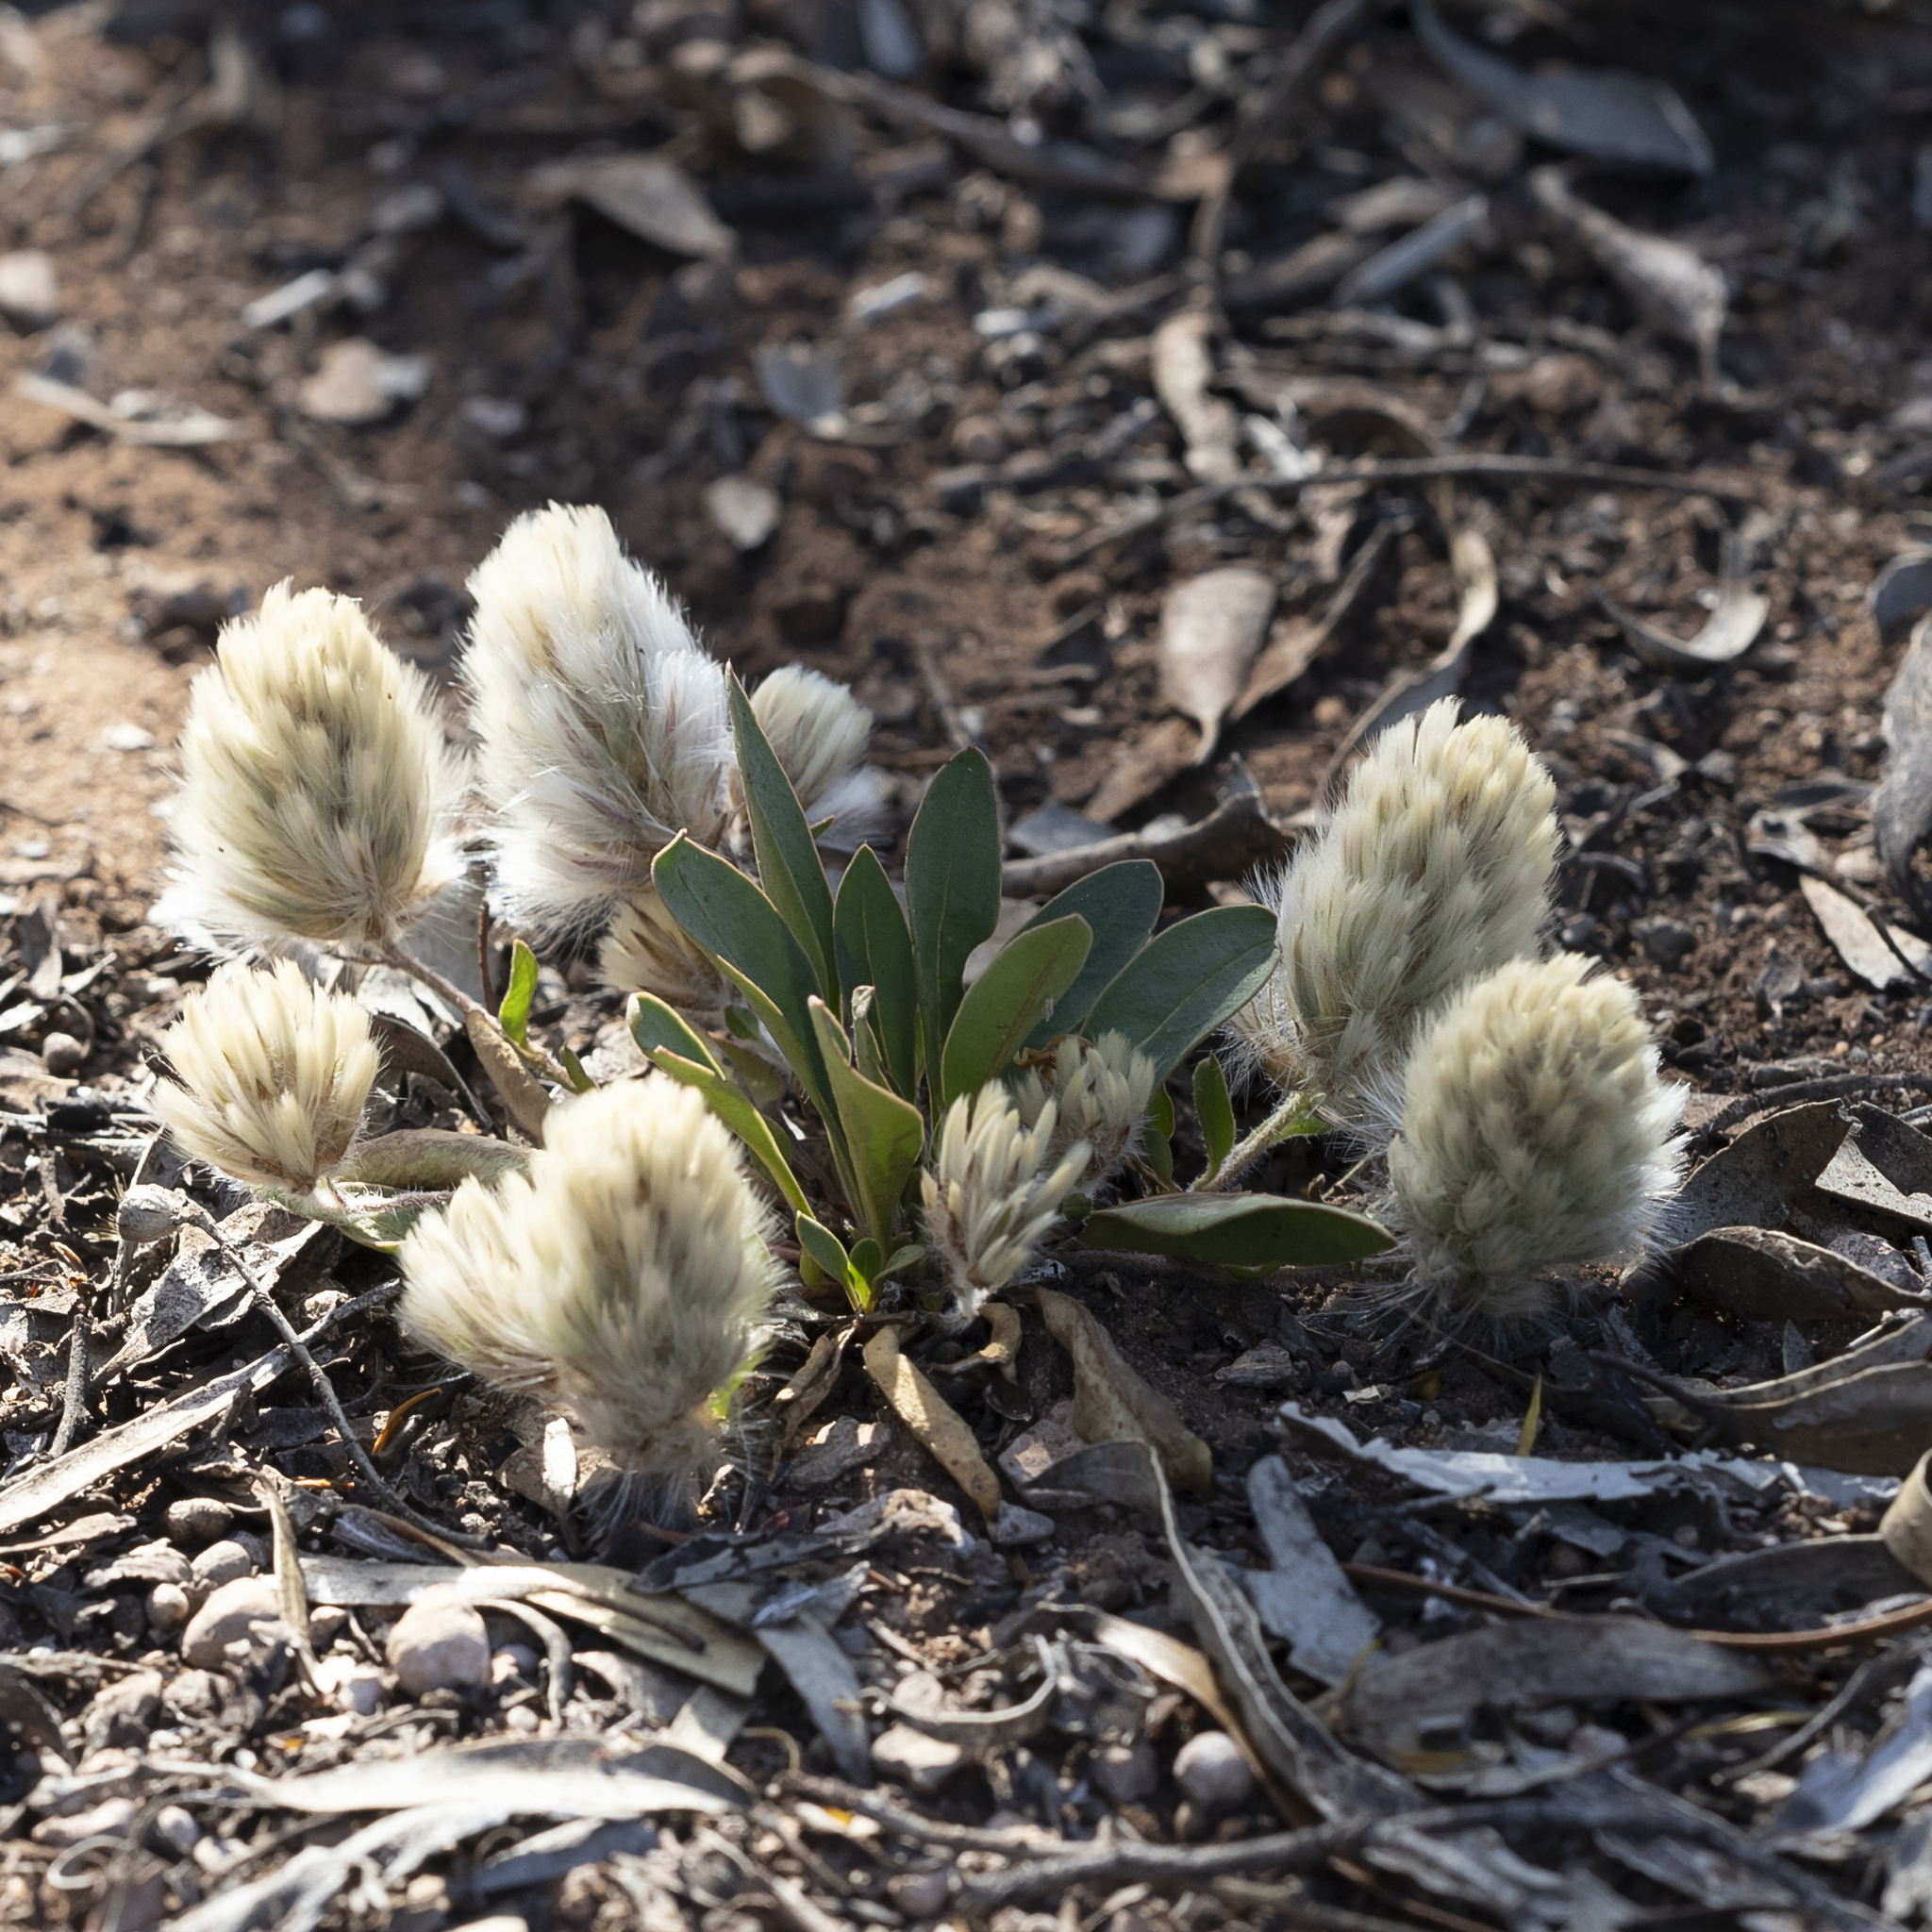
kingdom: Plantae
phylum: Tracheophyta
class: Magnoliopsida
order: Caryophyllales
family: Amaranthaceae
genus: Ptilotus
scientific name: Ptilotus seminudus
